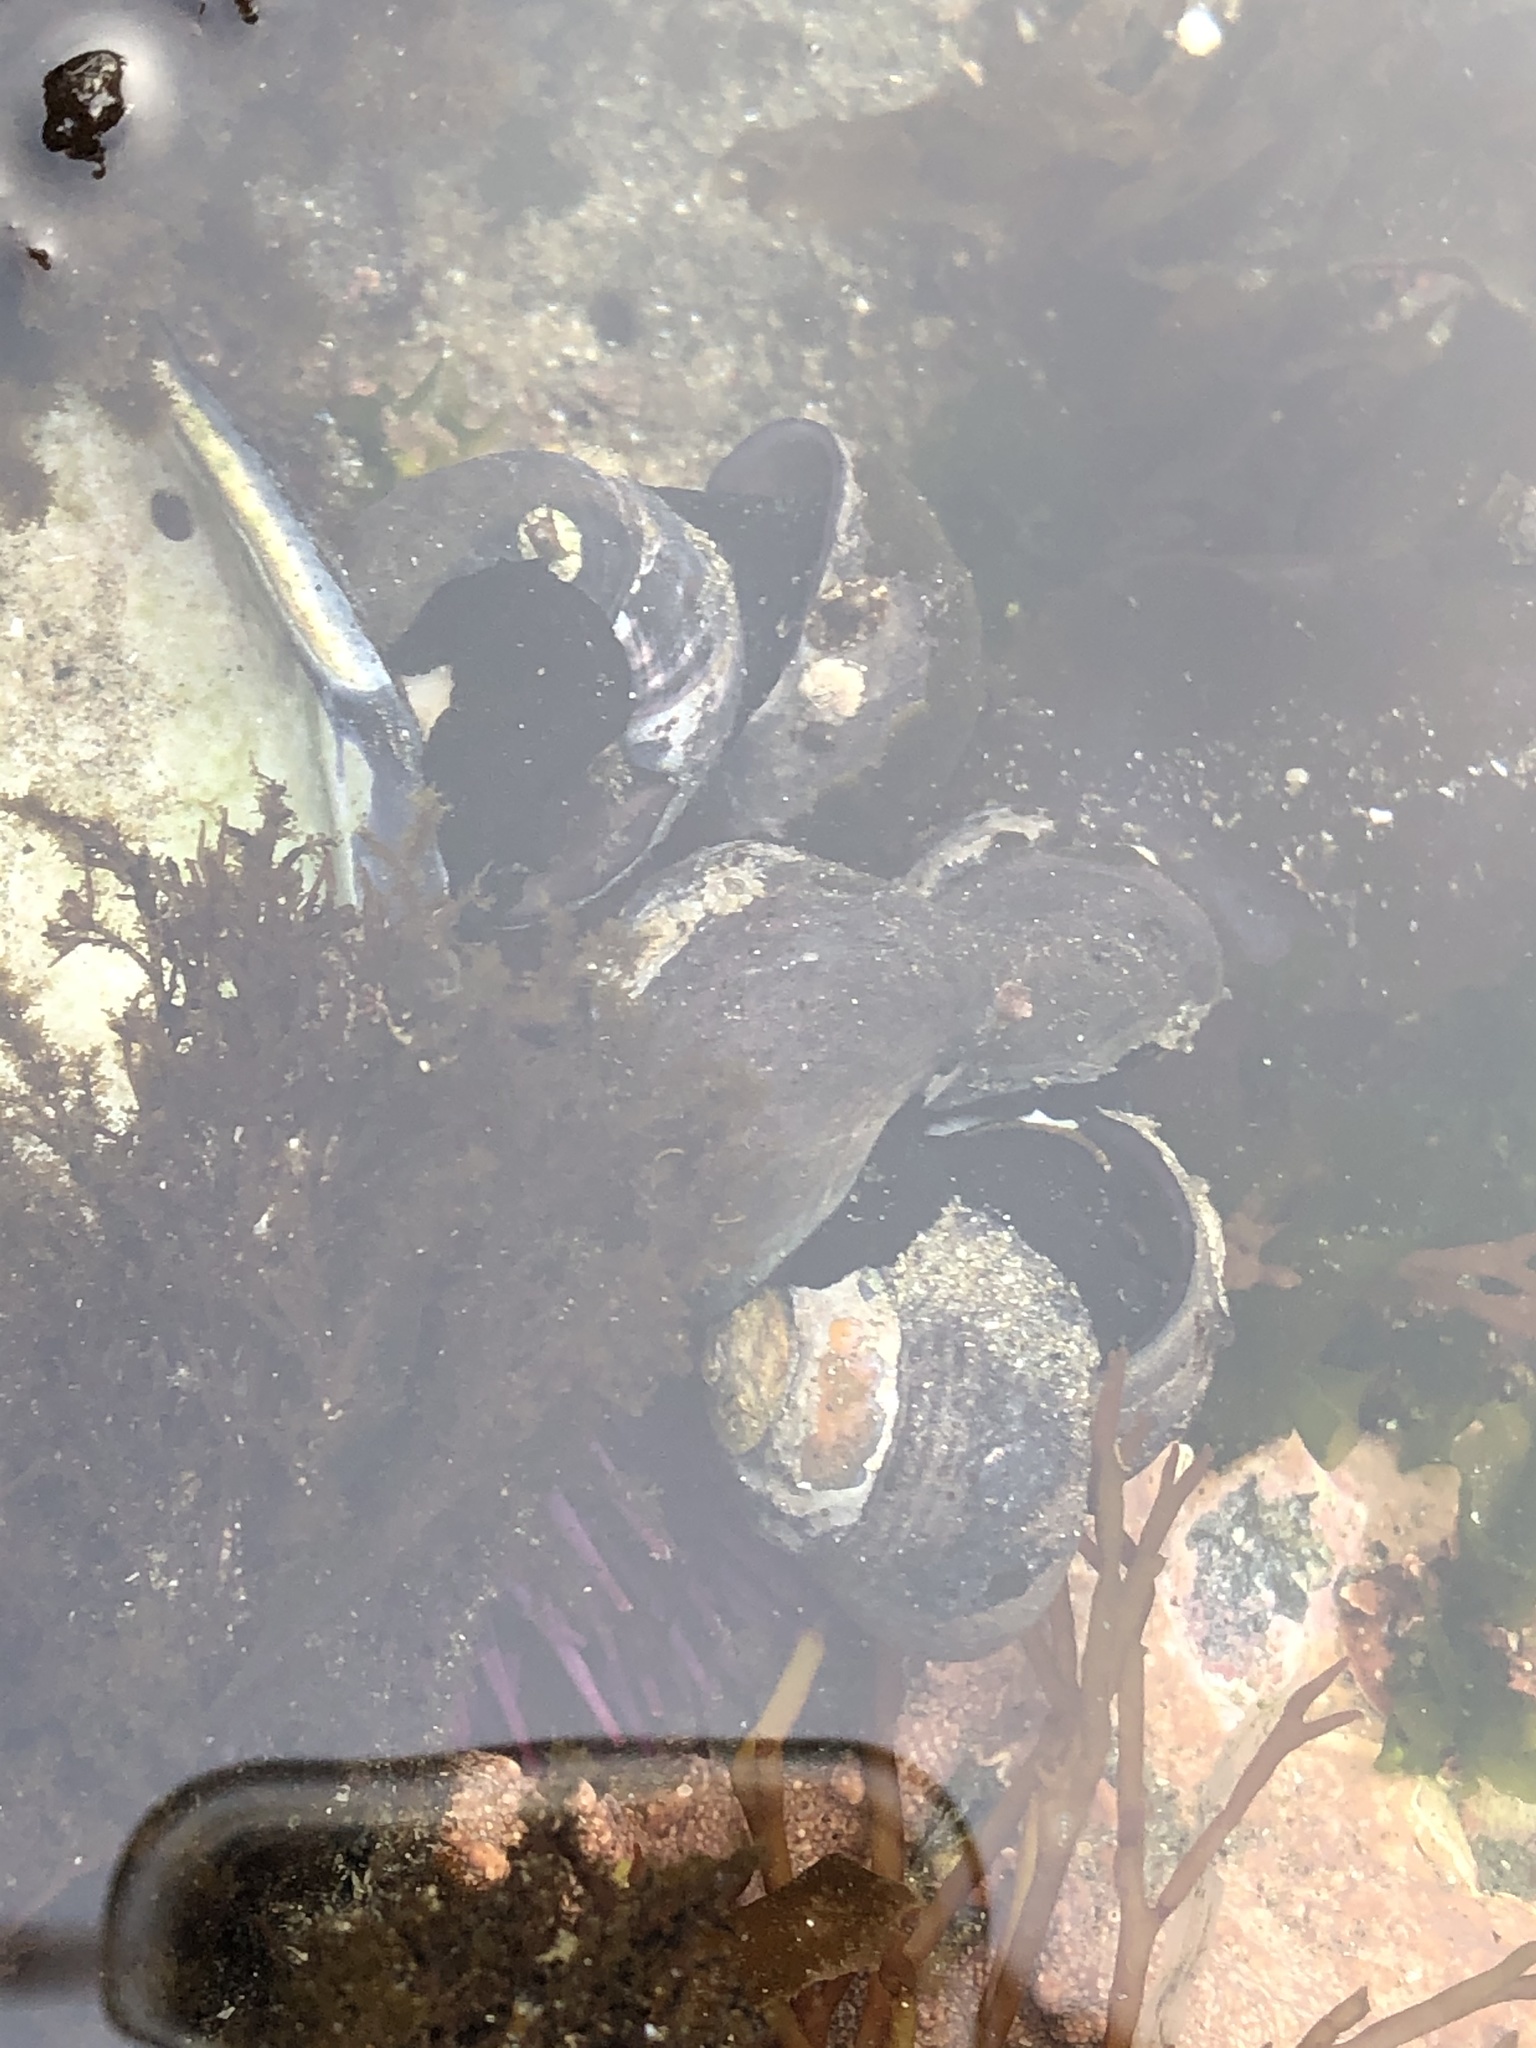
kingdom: Animalia
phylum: Mollusca
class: Gastropoda
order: Trochida
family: Tegulidae
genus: Tegula
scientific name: Tegula funebralis
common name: Black tegula
